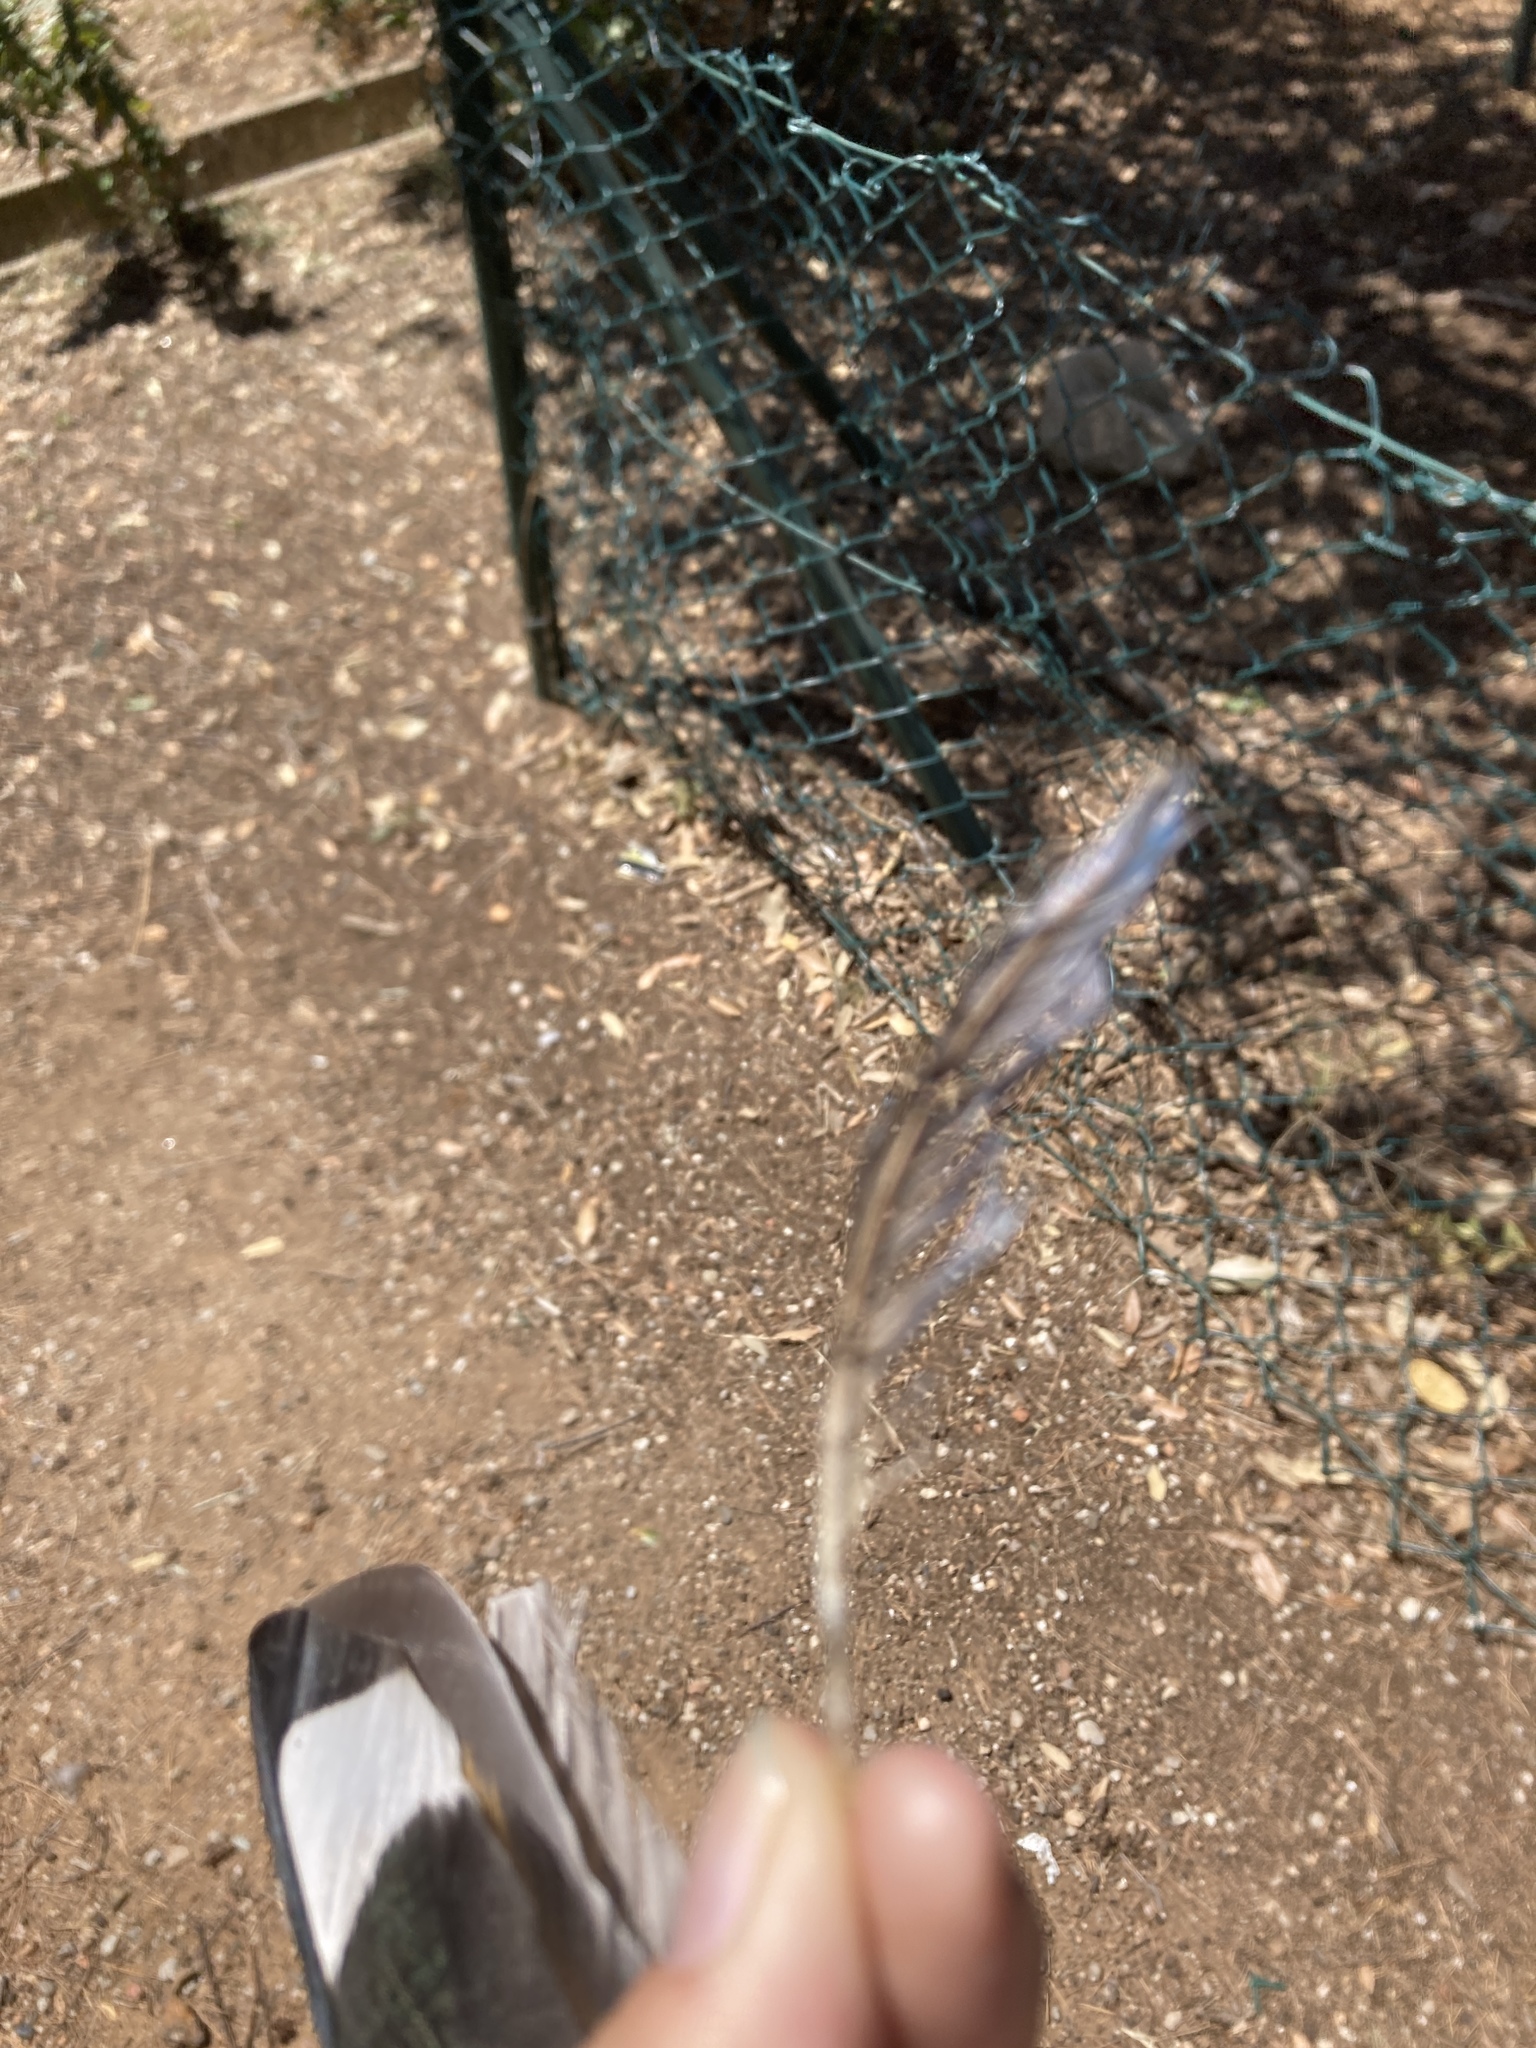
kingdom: Animalia
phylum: Chordata
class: Aves
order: Psittaciformes
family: Psittacidae
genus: Myiopsitta
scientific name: Myiopsitta monachus
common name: Monk parakeet
